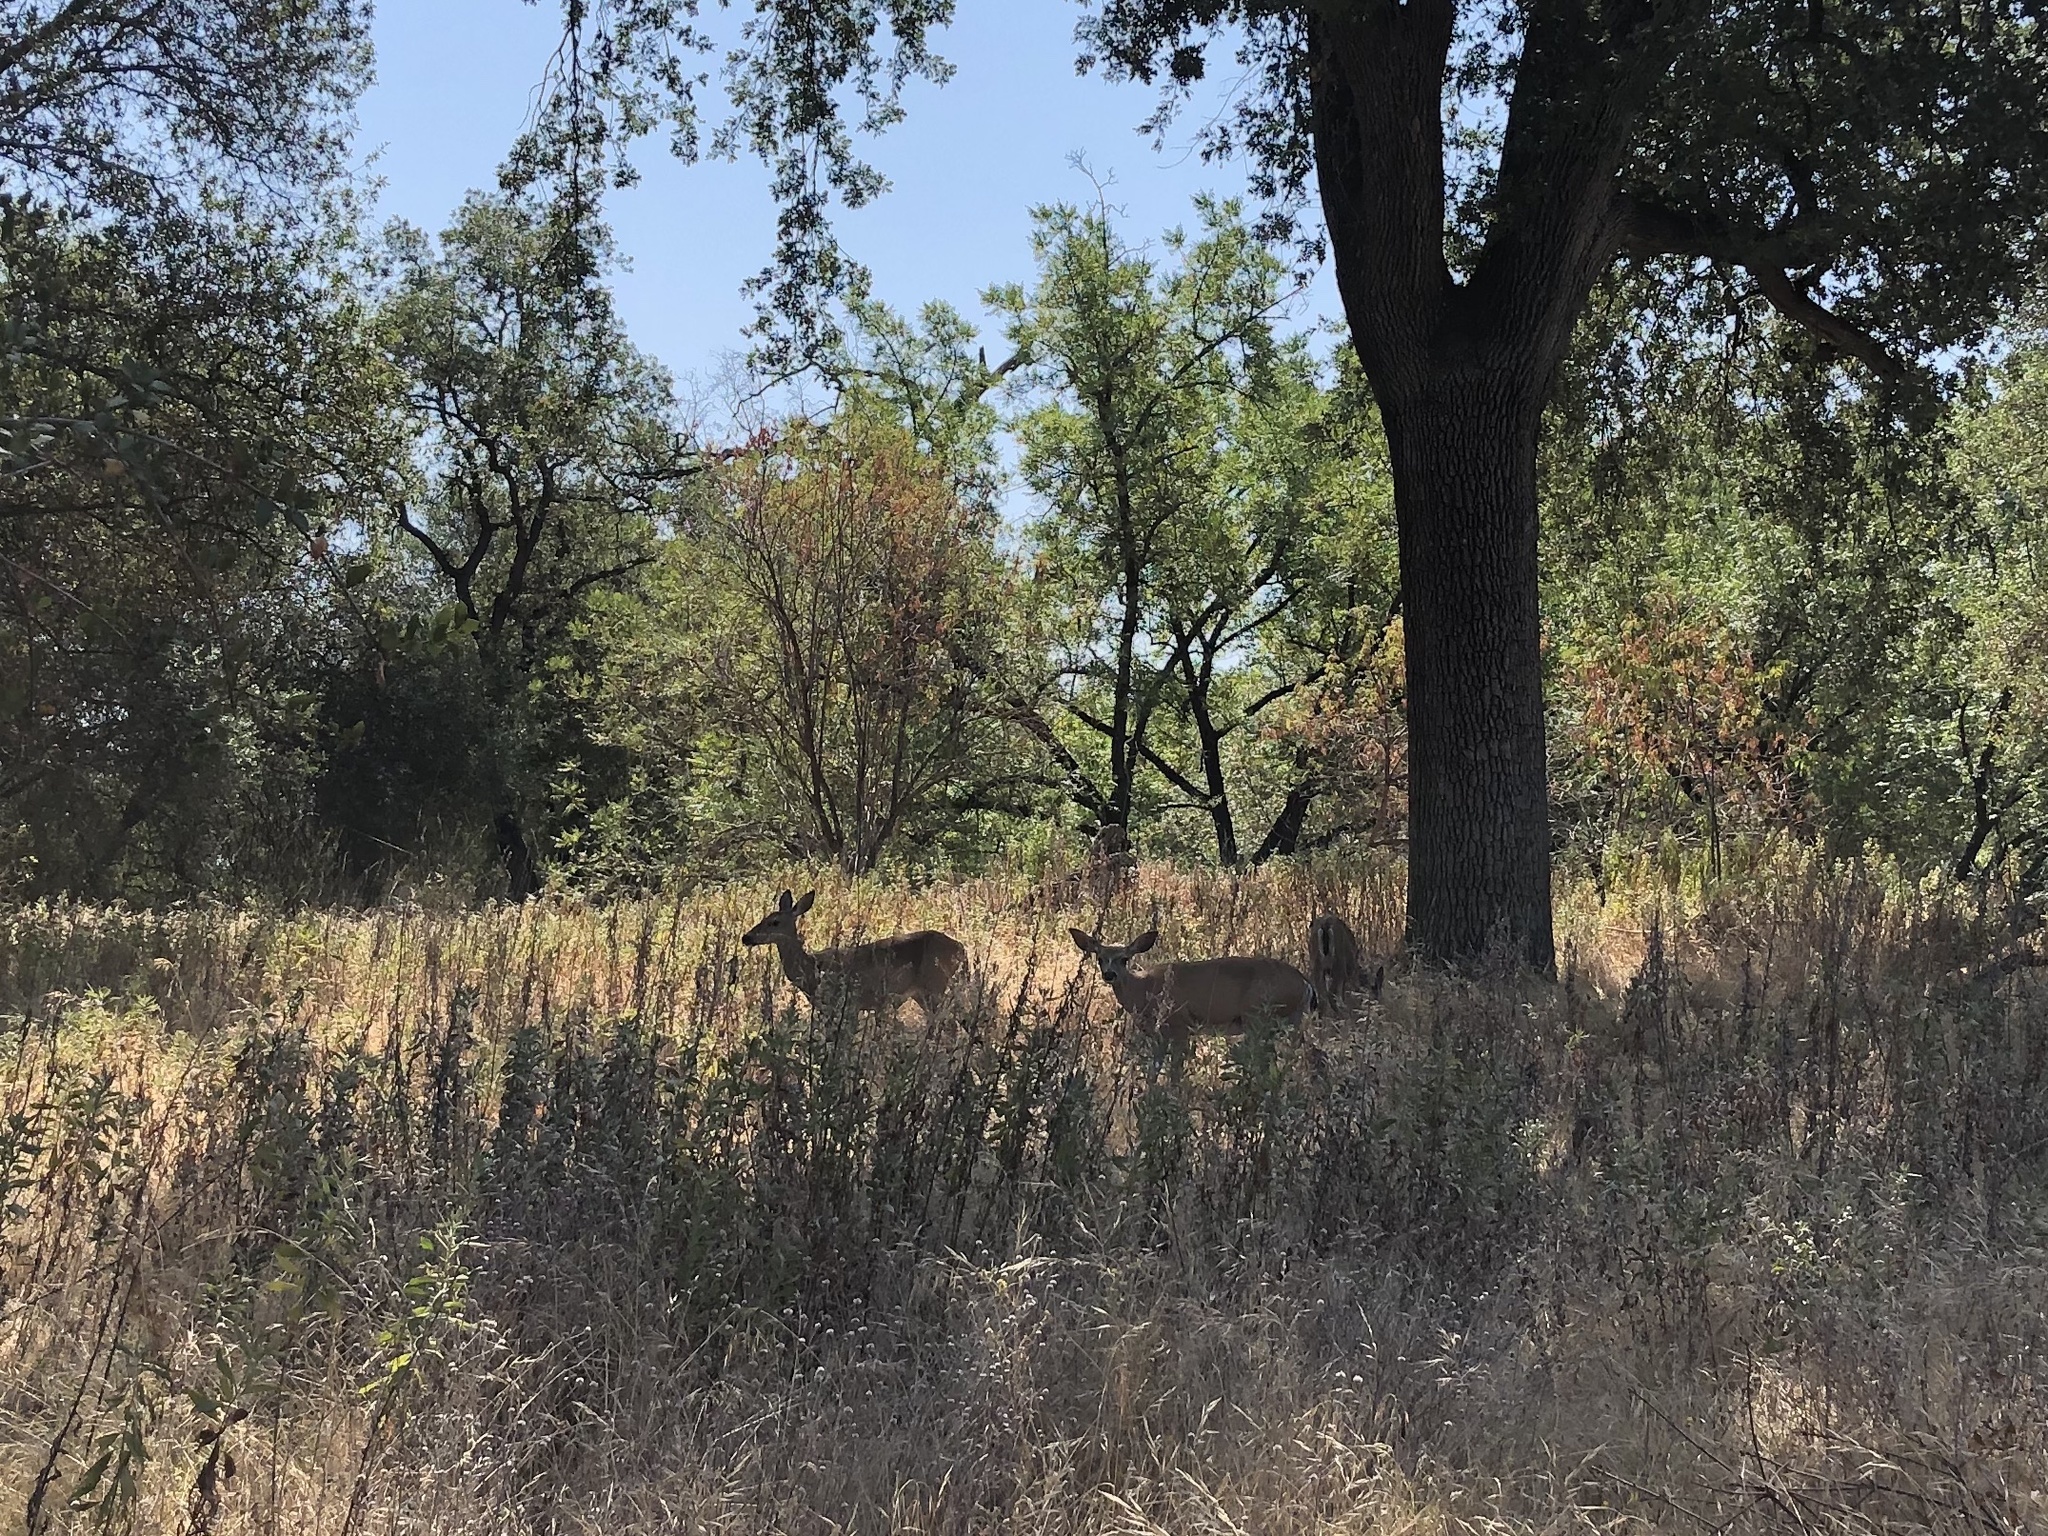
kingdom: Animalia
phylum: Chordata
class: Mammalia
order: Artiodactyla
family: Cervidae
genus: Odocoileus
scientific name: Odocoileus hemionus
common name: Mule deer
